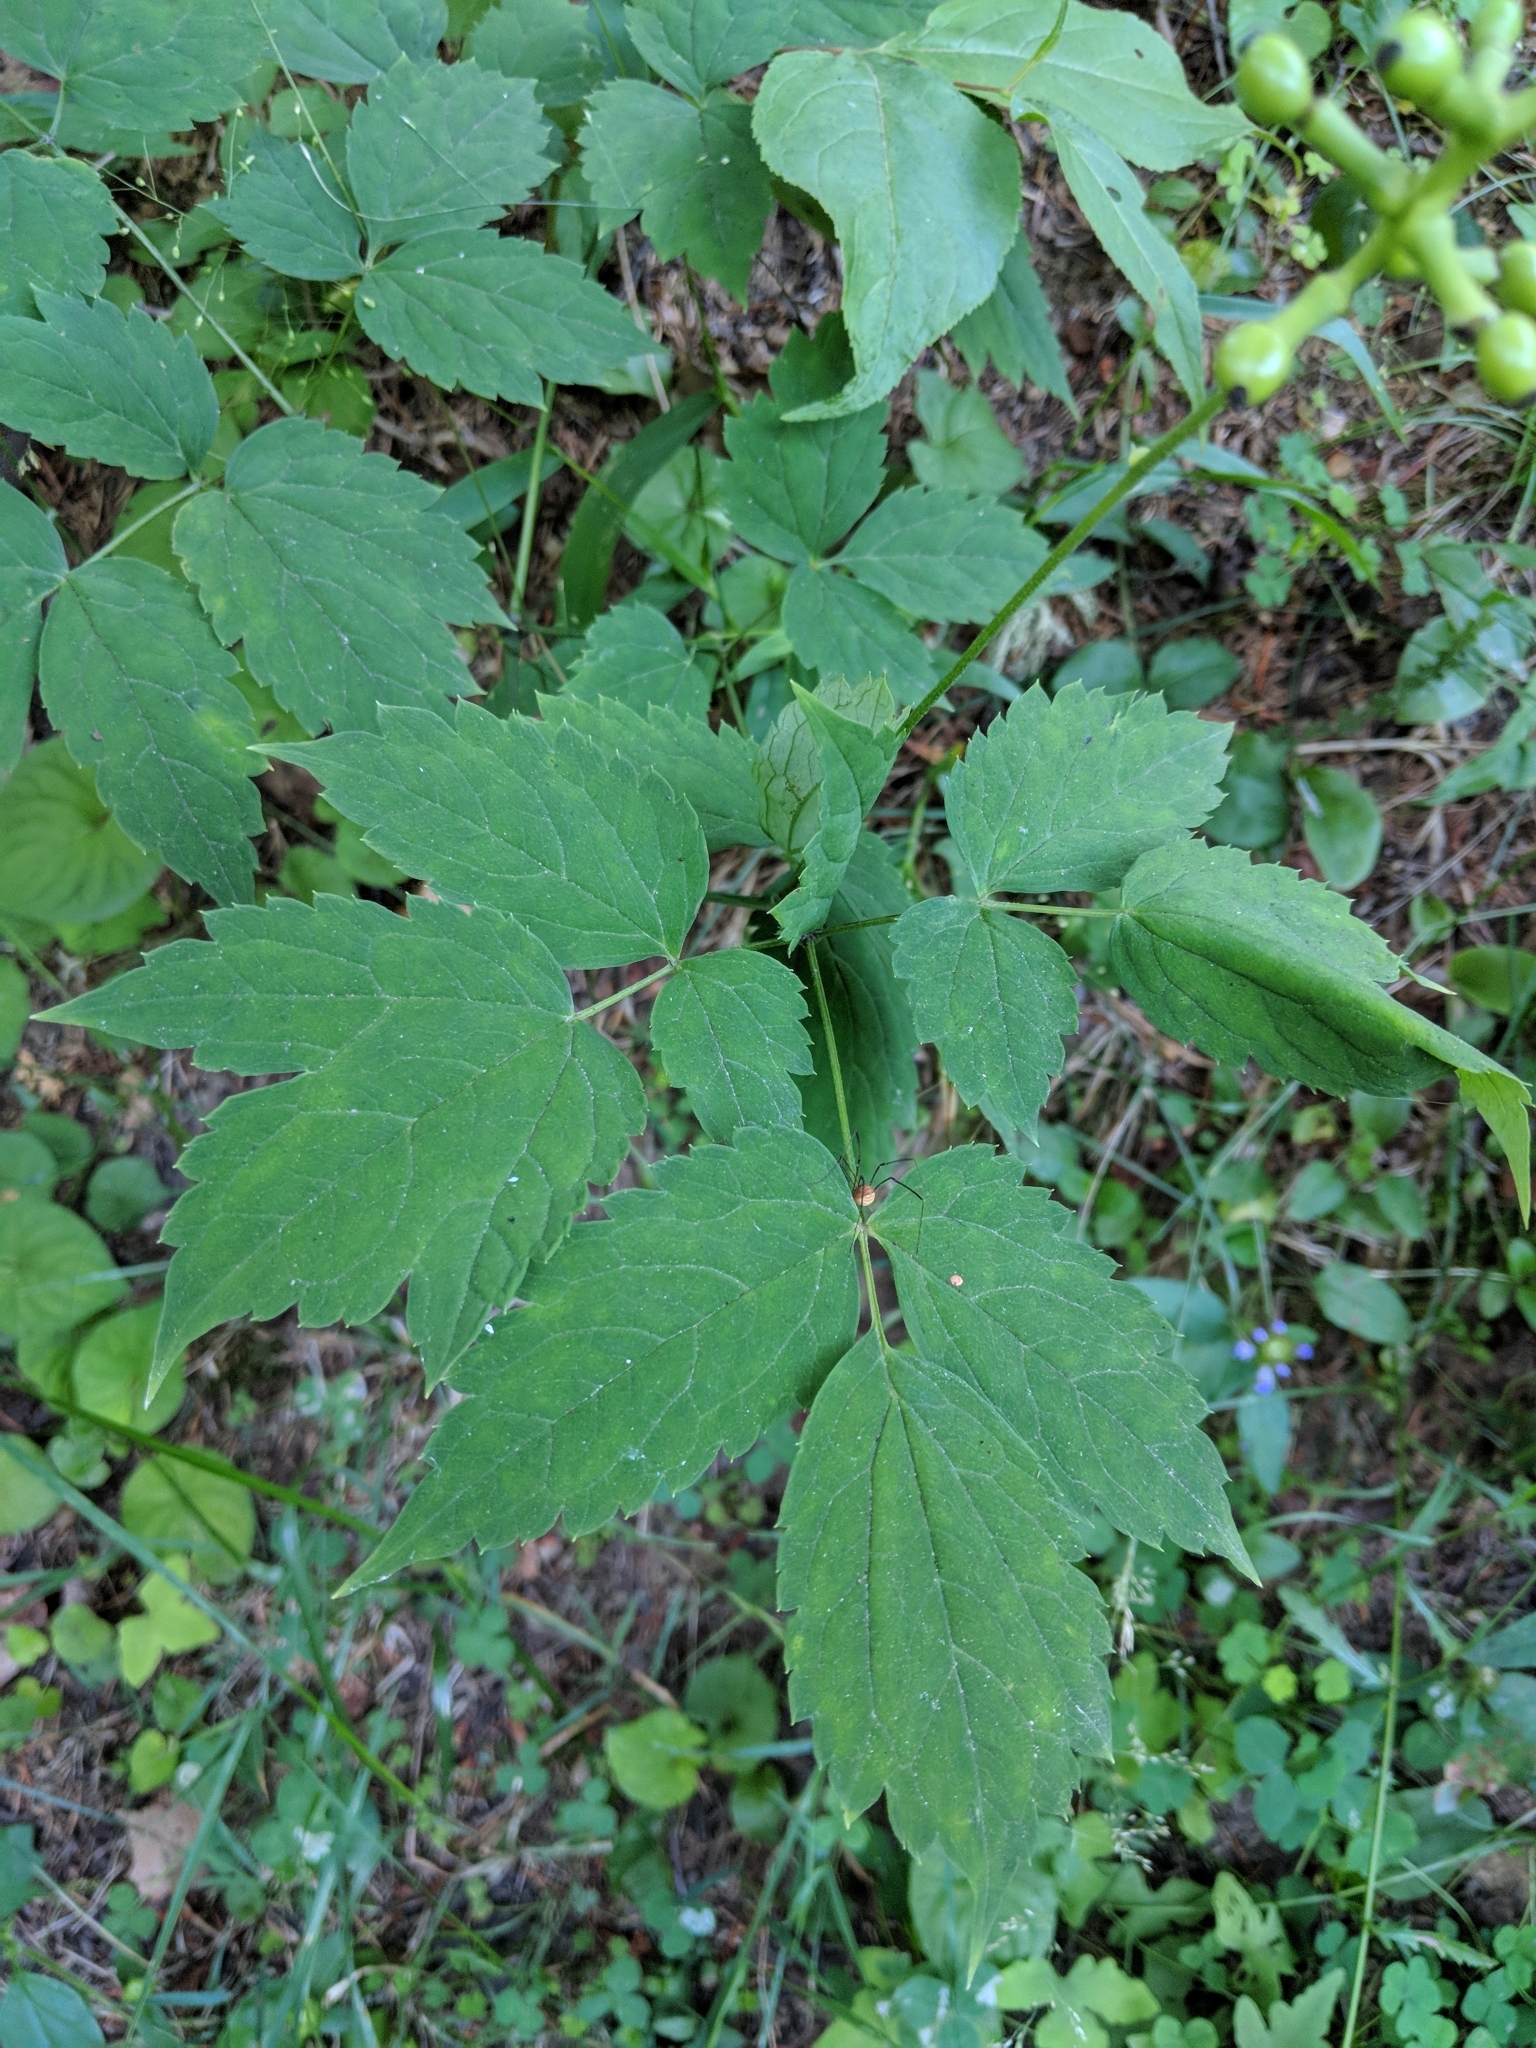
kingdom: Plantae
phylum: Tracheophyta
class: Magnoliopsida
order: Ranunculales
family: Ranunculaceae
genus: Actaea
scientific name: Actaea pachypoda
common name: Doll's-eyes
